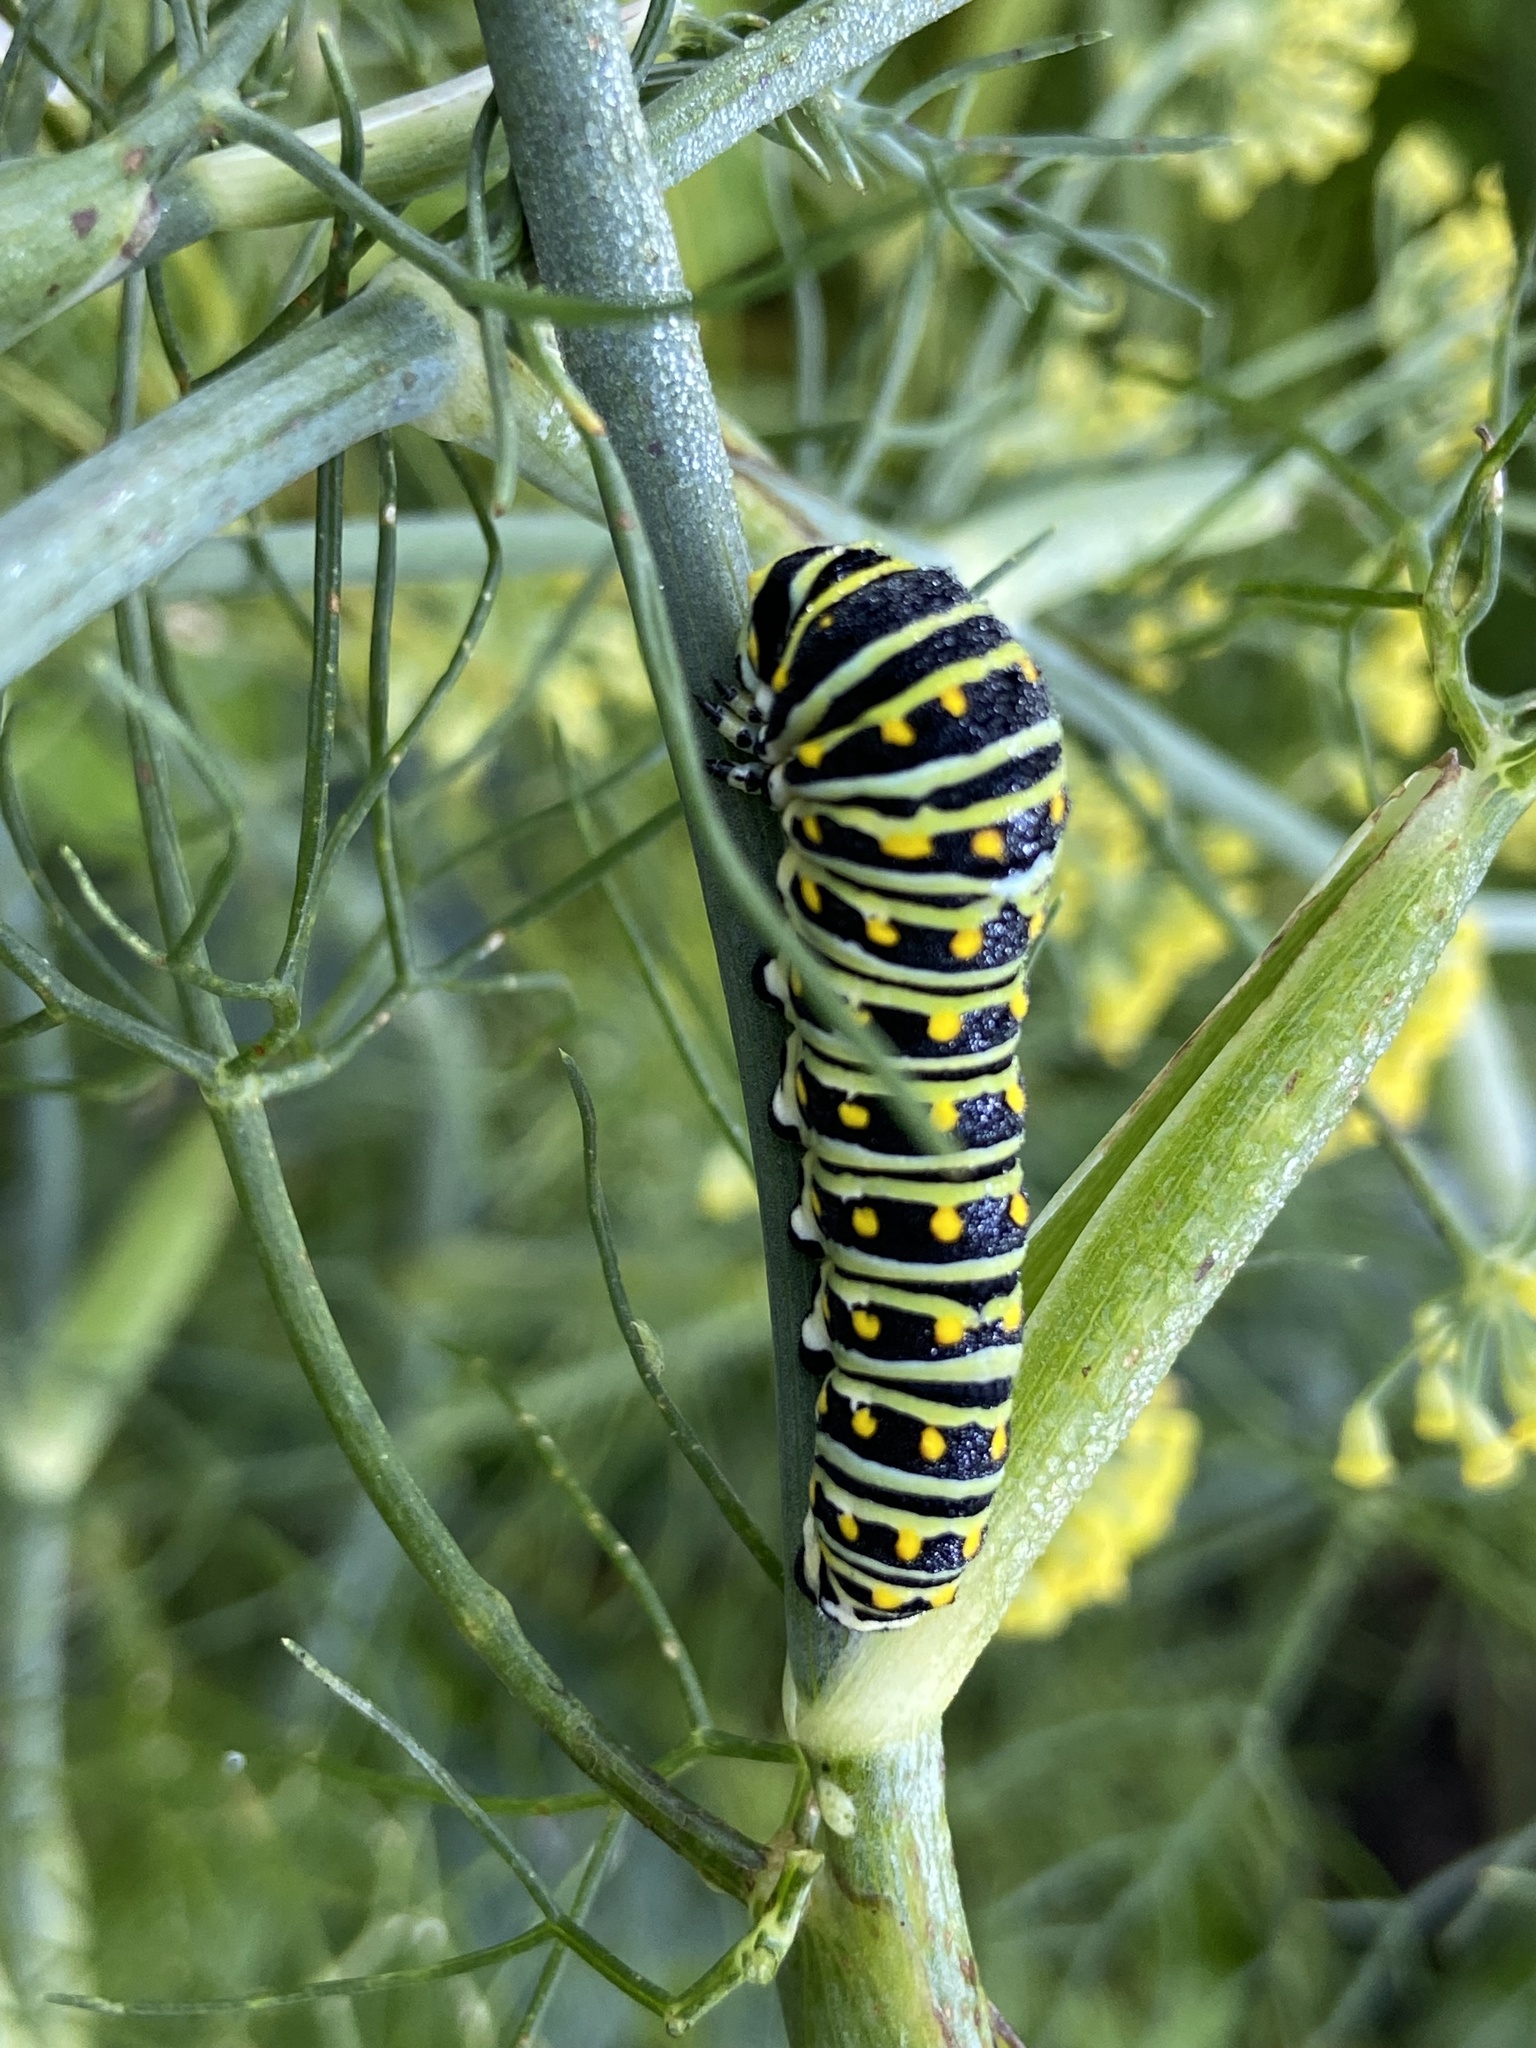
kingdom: Animalia
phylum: Arthropoda
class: Insecta
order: Lepidoptera
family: Papilionidae
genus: Papilio
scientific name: Papilio polyxenes
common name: Black swallowtail
